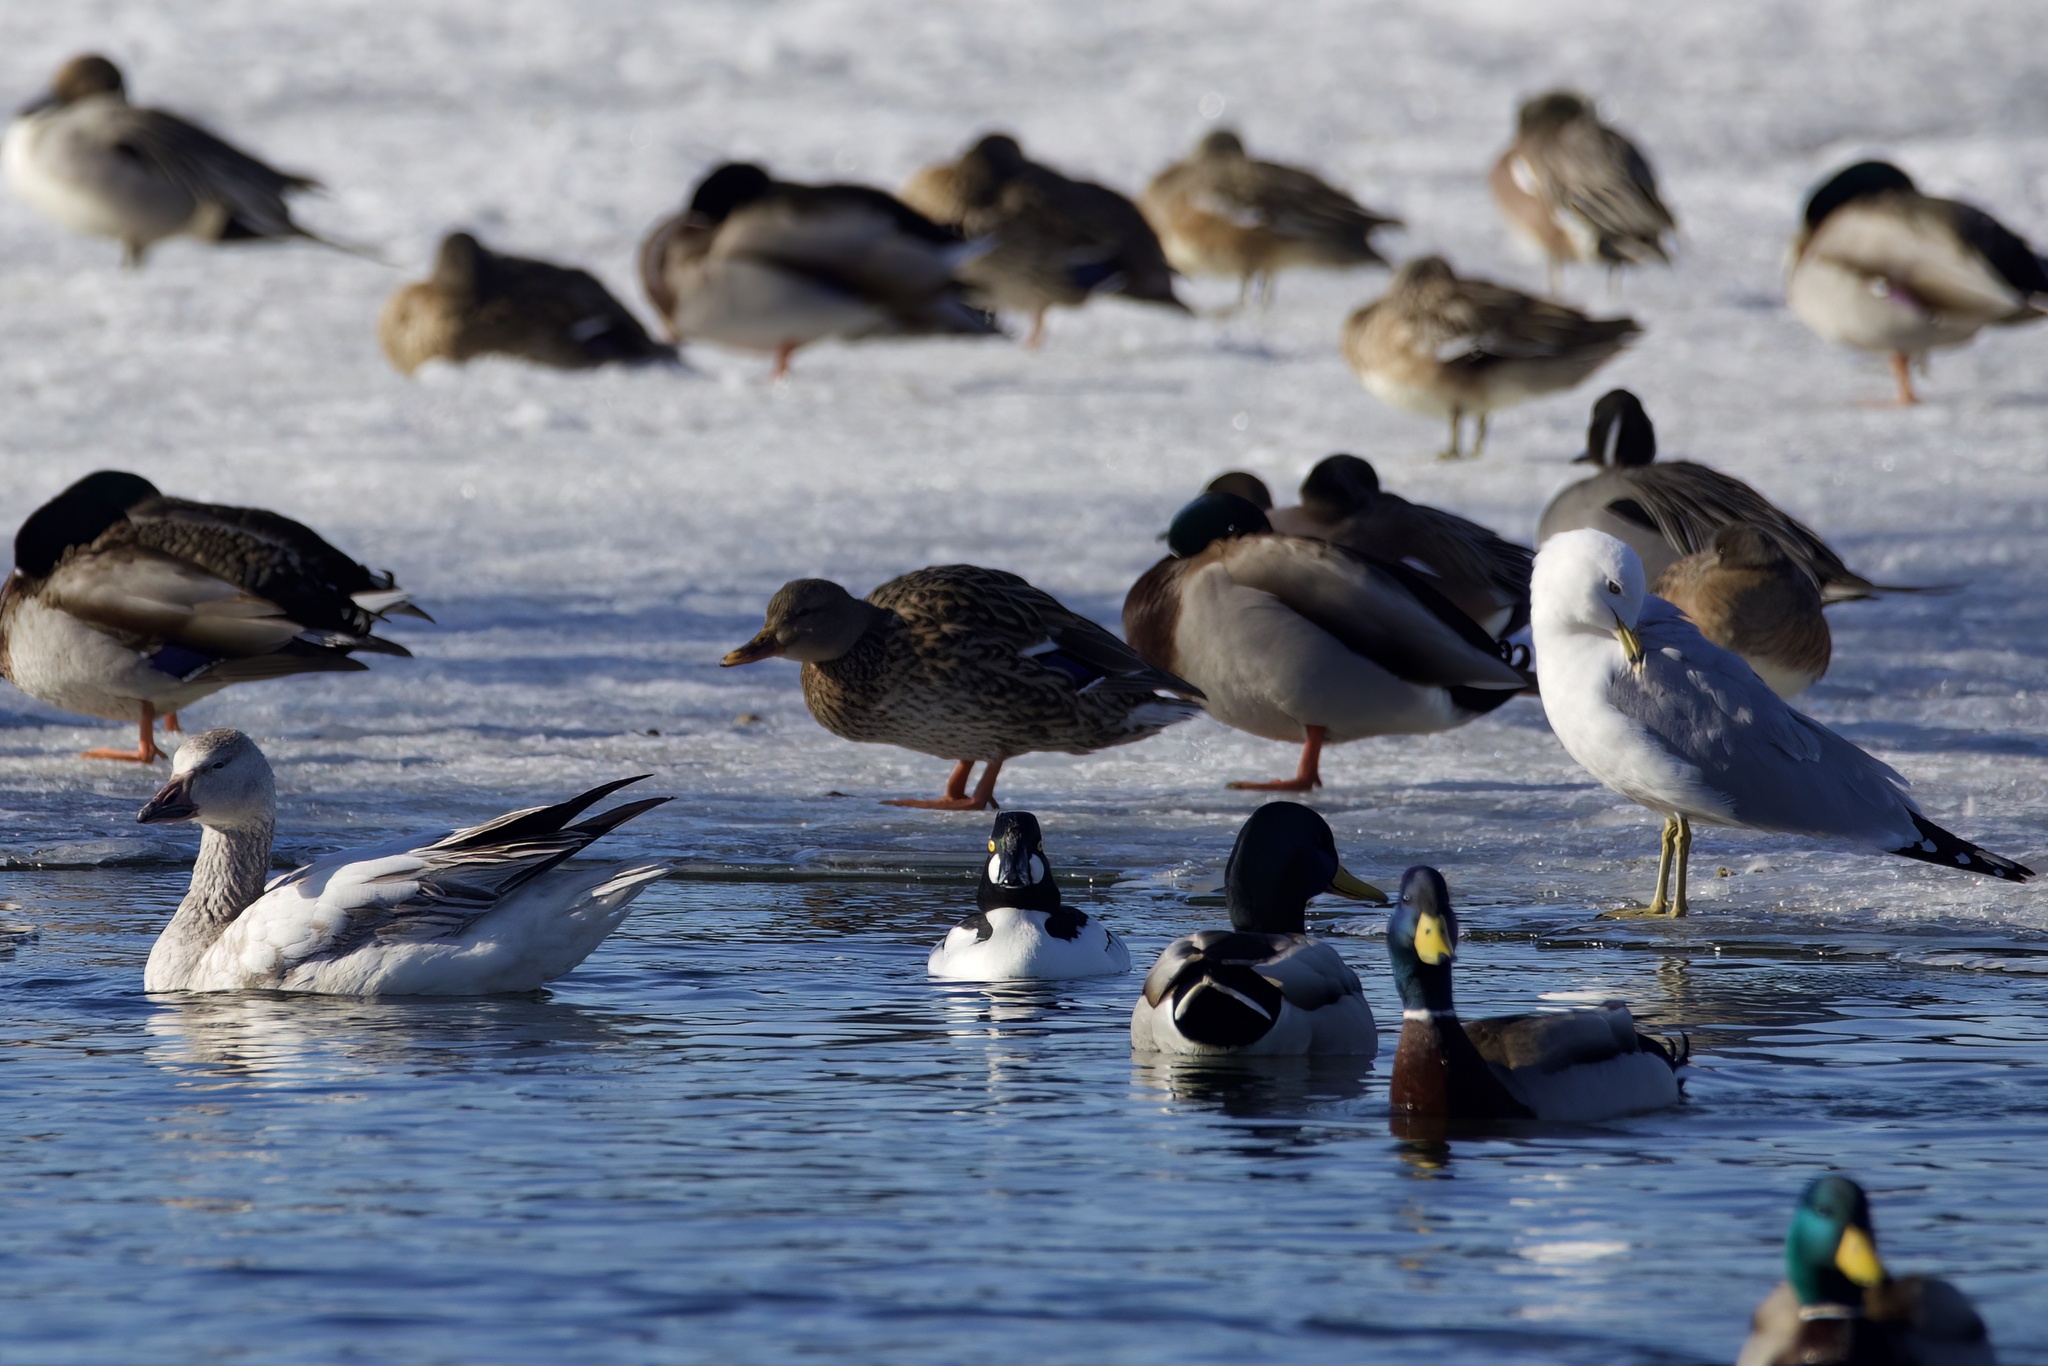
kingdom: Animalia
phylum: Chordata
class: Aves
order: Anseriformes
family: Anatidae
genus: Anser
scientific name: Anser caerulescens
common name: Snow goose
